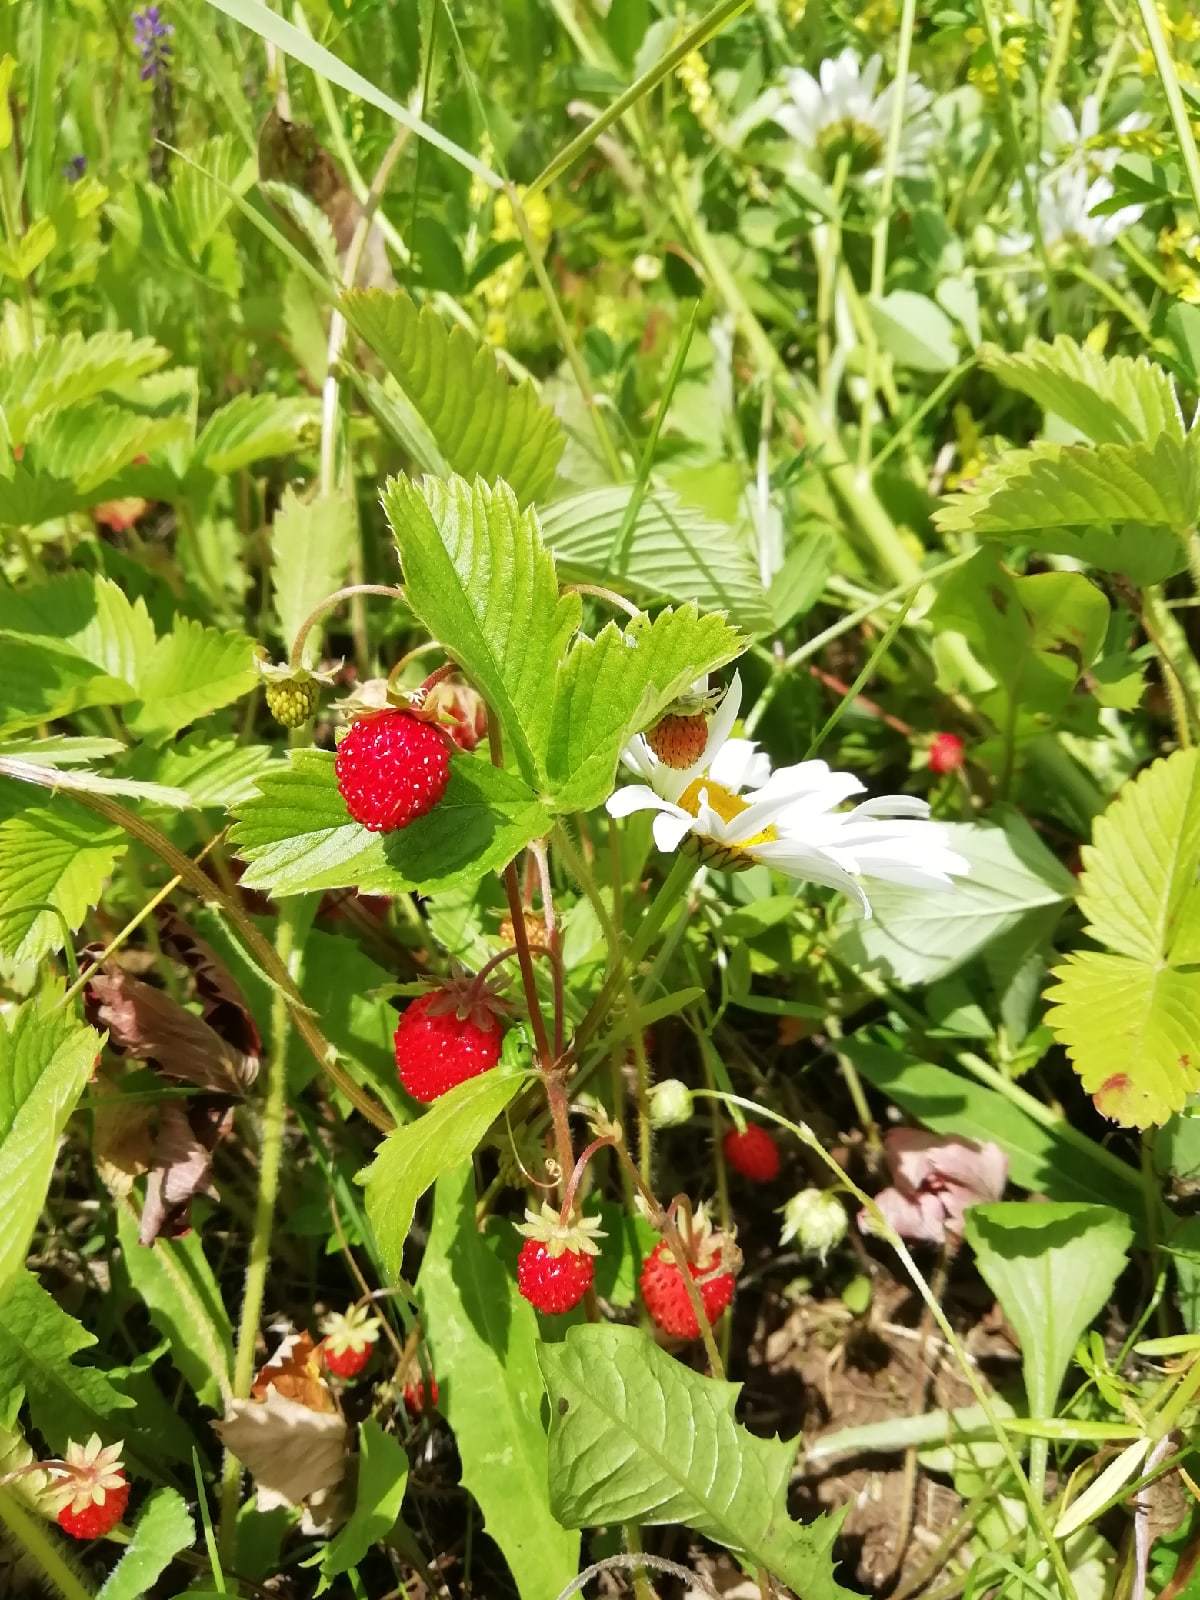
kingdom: Plantae
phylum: Tracheophyta
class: Magnoliopsida
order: Rosales
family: Rosaceae
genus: Fragaria
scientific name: Fragaria vesca
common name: Wild strawberry
